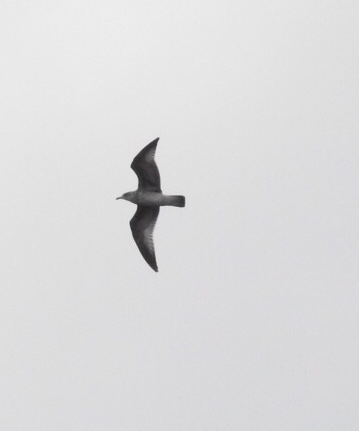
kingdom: Animalia
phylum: Chordata
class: Aves
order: Charadriiformes
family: Laridae
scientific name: Laridae
